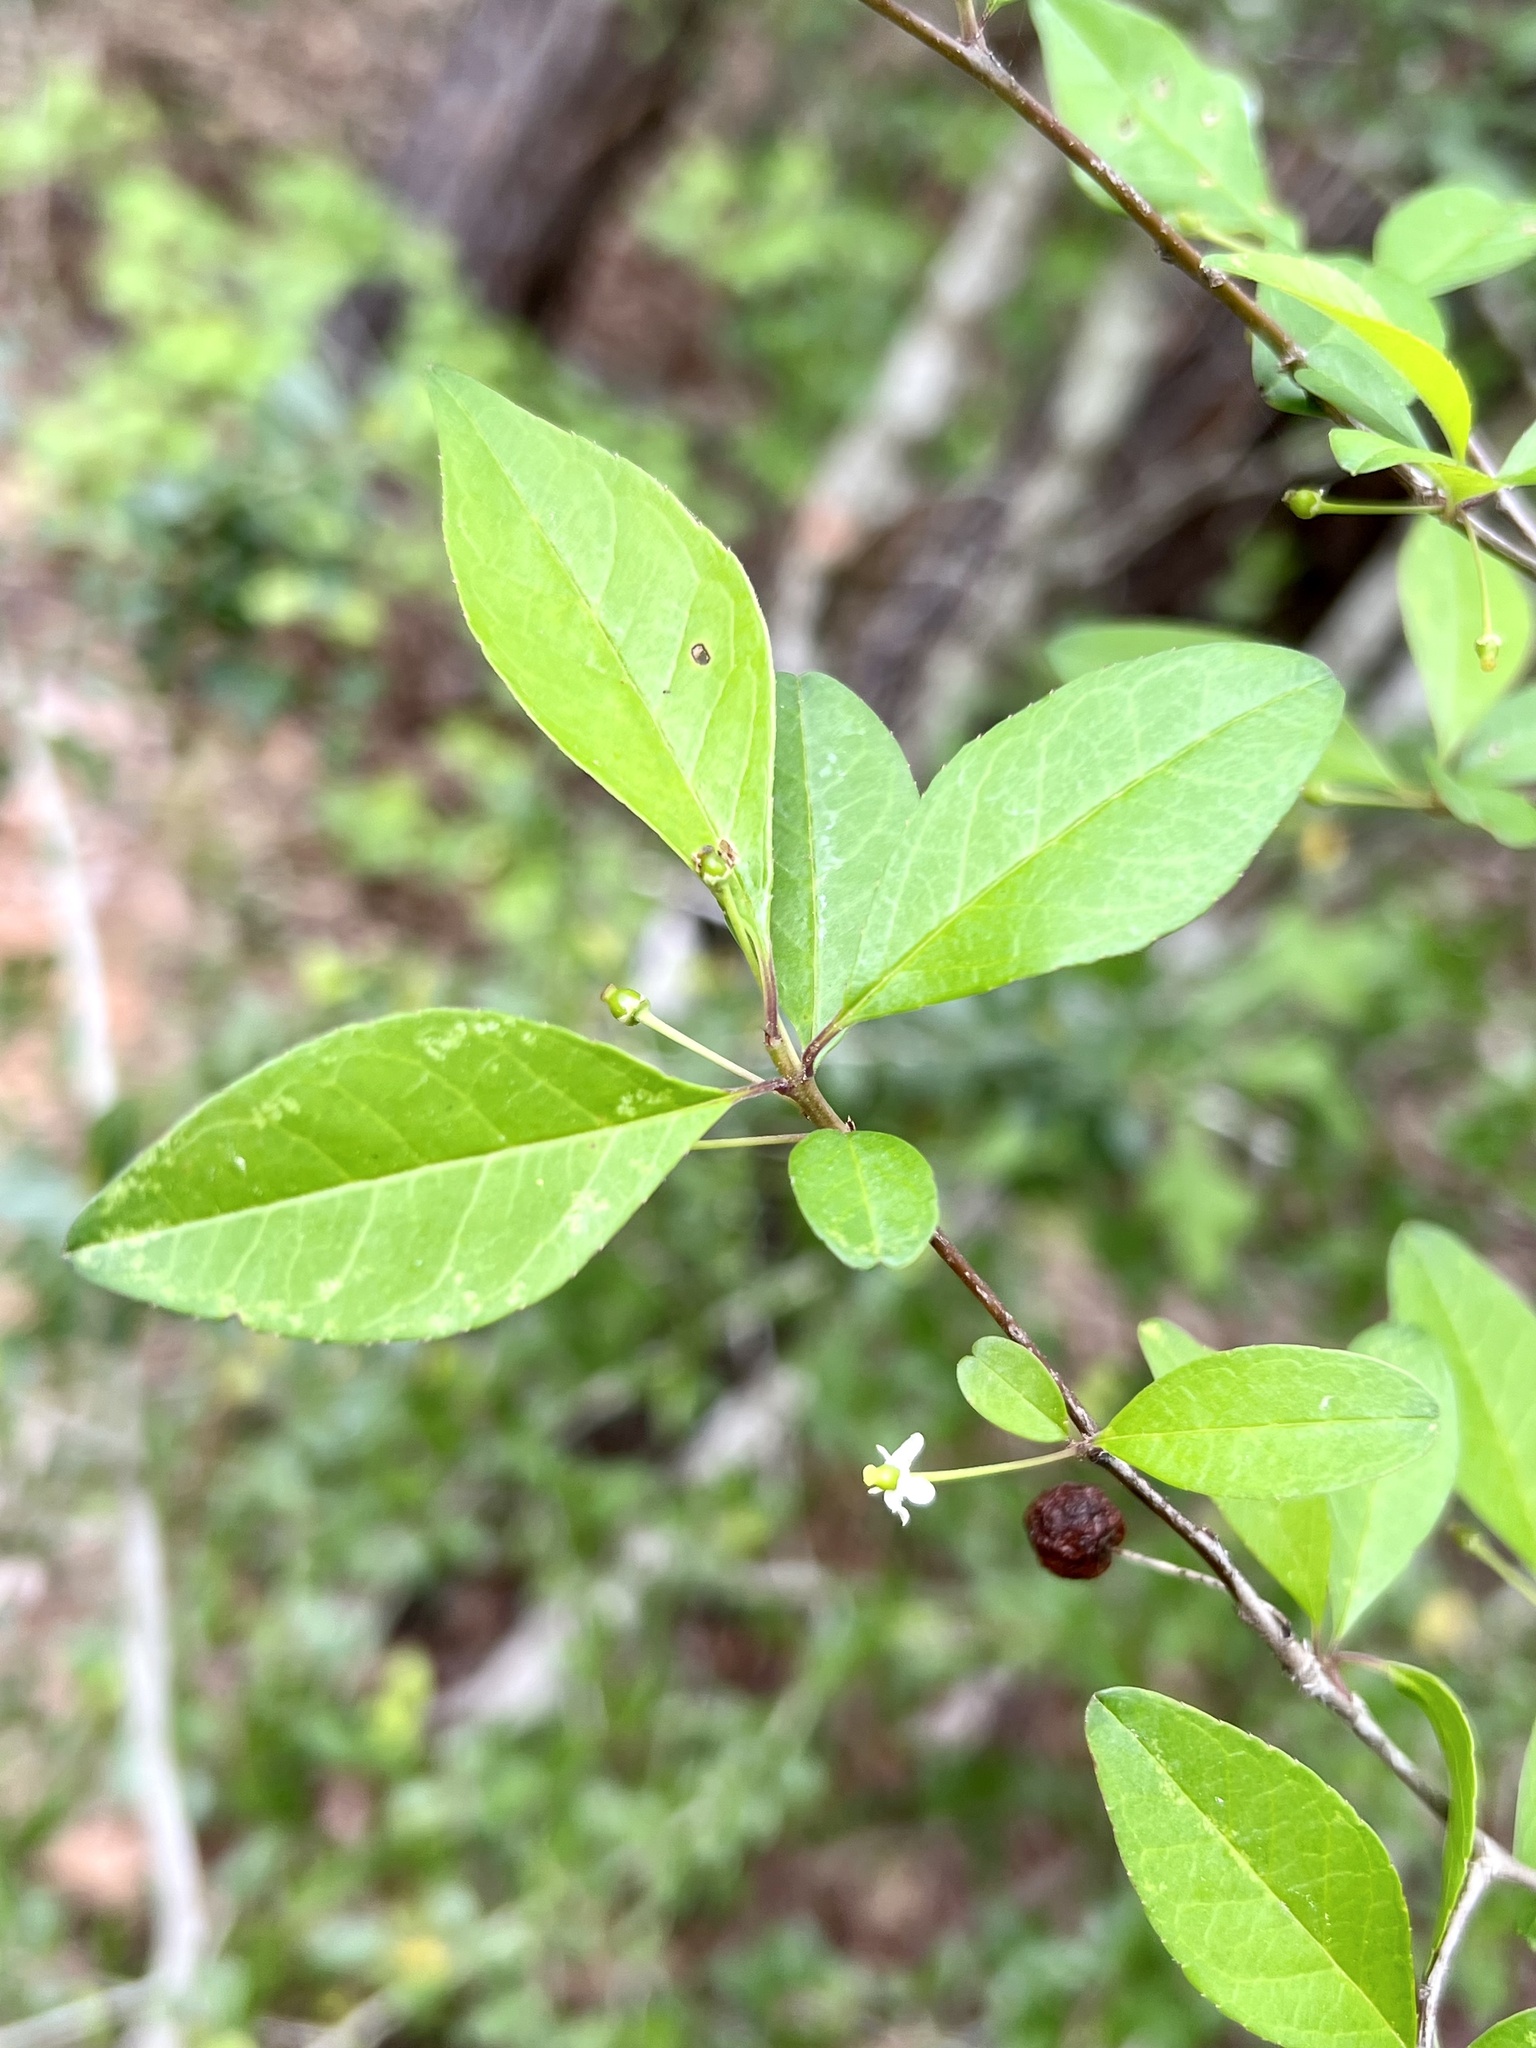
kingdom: Plantae
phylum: Tracheophyta
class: Magnoliopsida
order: Aquifoliales
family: Aquifoliaceae
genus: Ilex
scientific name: Ilex longipes
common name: Georgia holly
